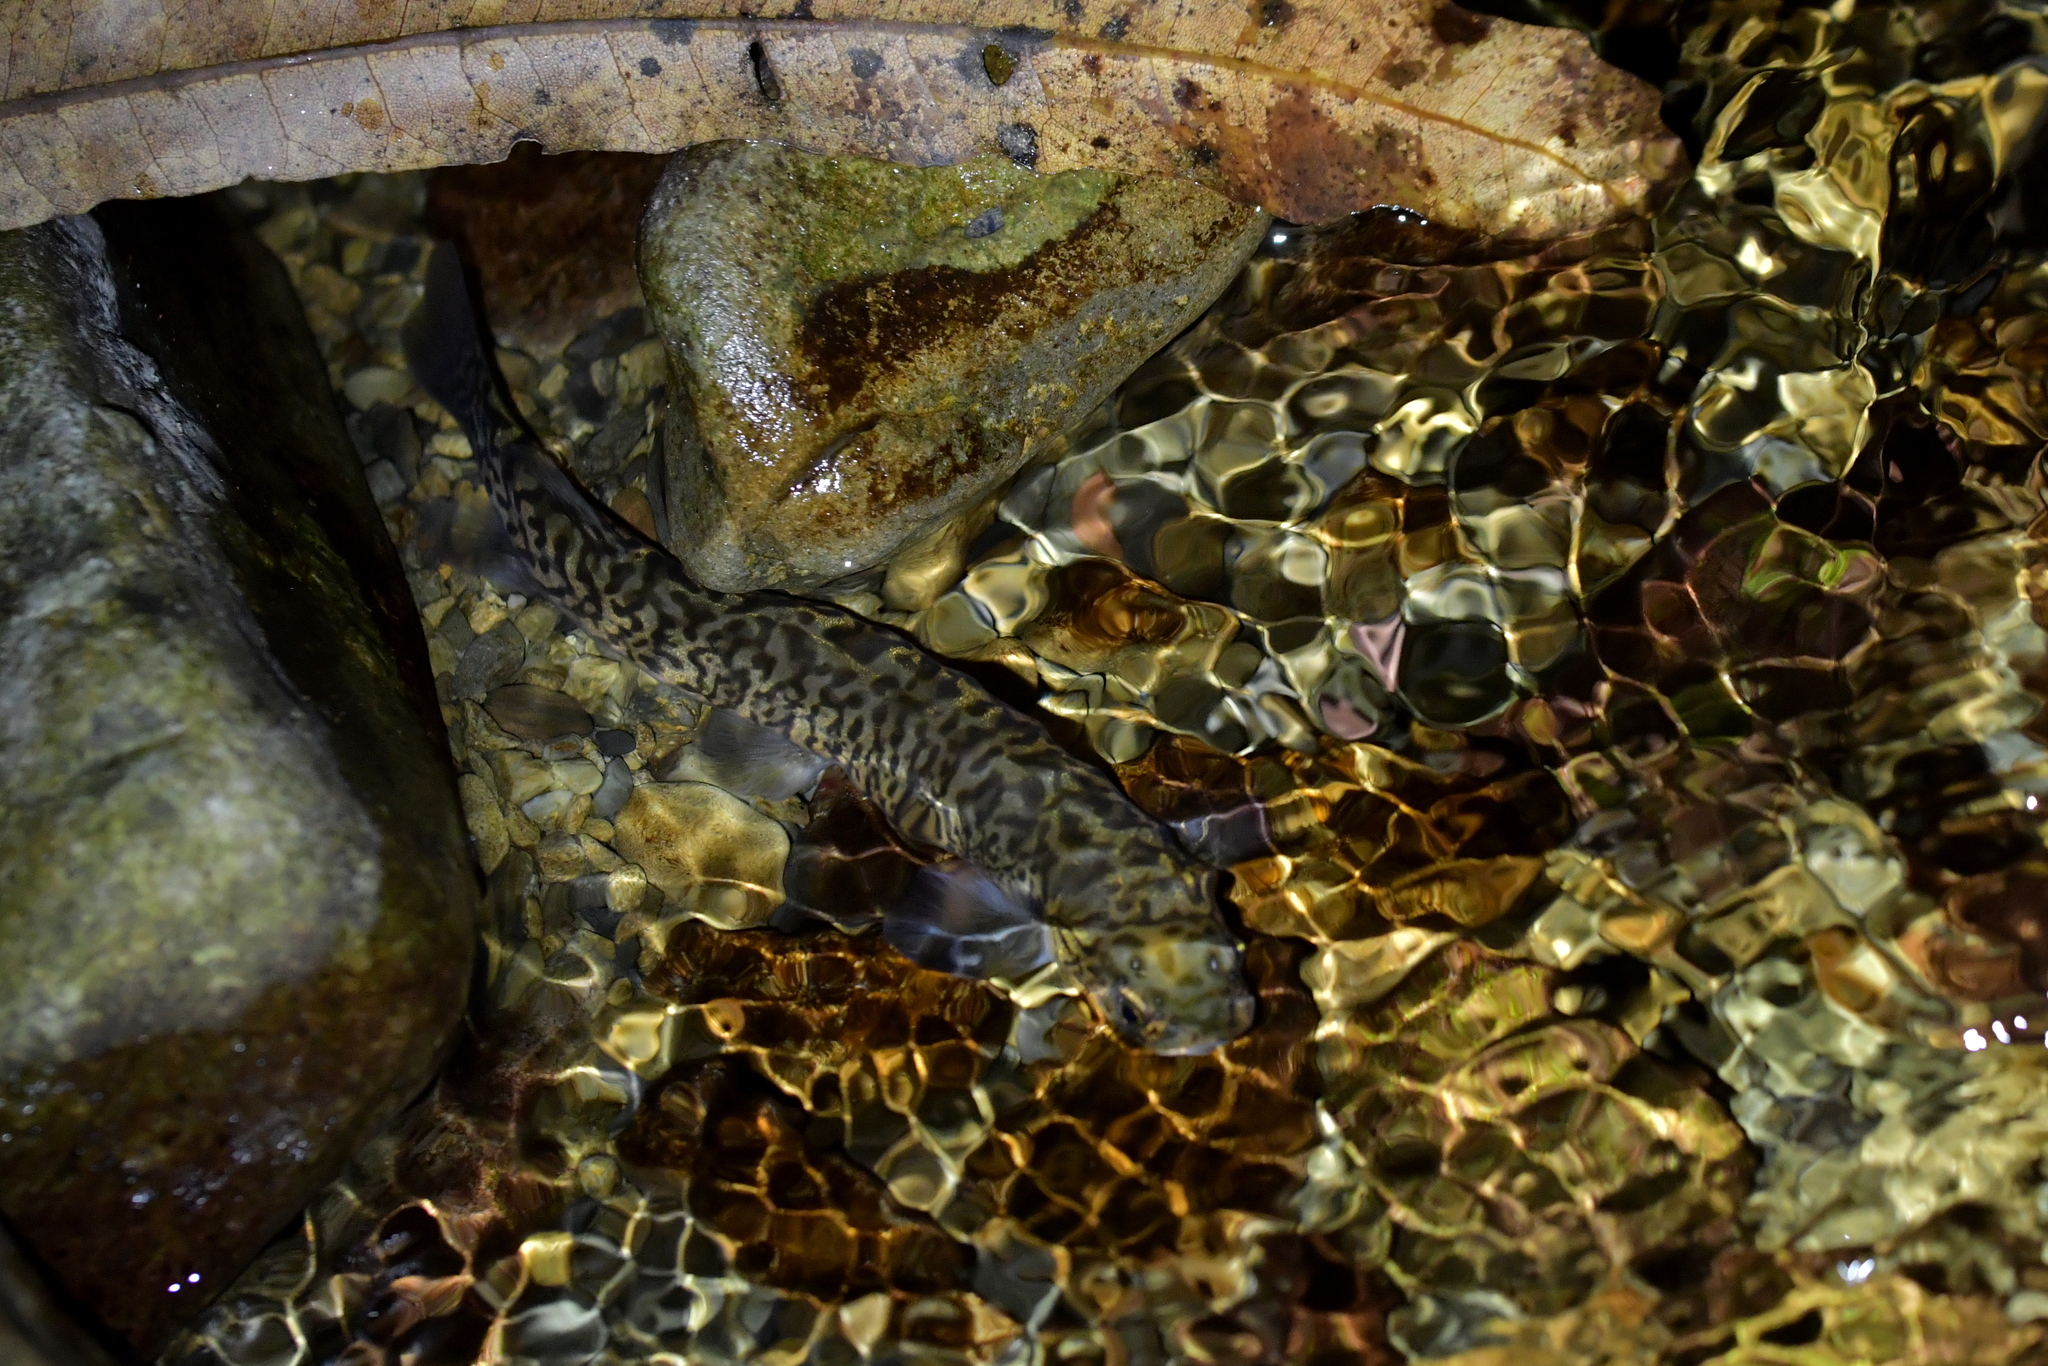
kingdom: Animalia
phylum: Chordata
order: Osmeriformes
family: Galaxiidae
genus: Galaxias
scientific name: Galaxias brevipinnis
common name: Koaro
